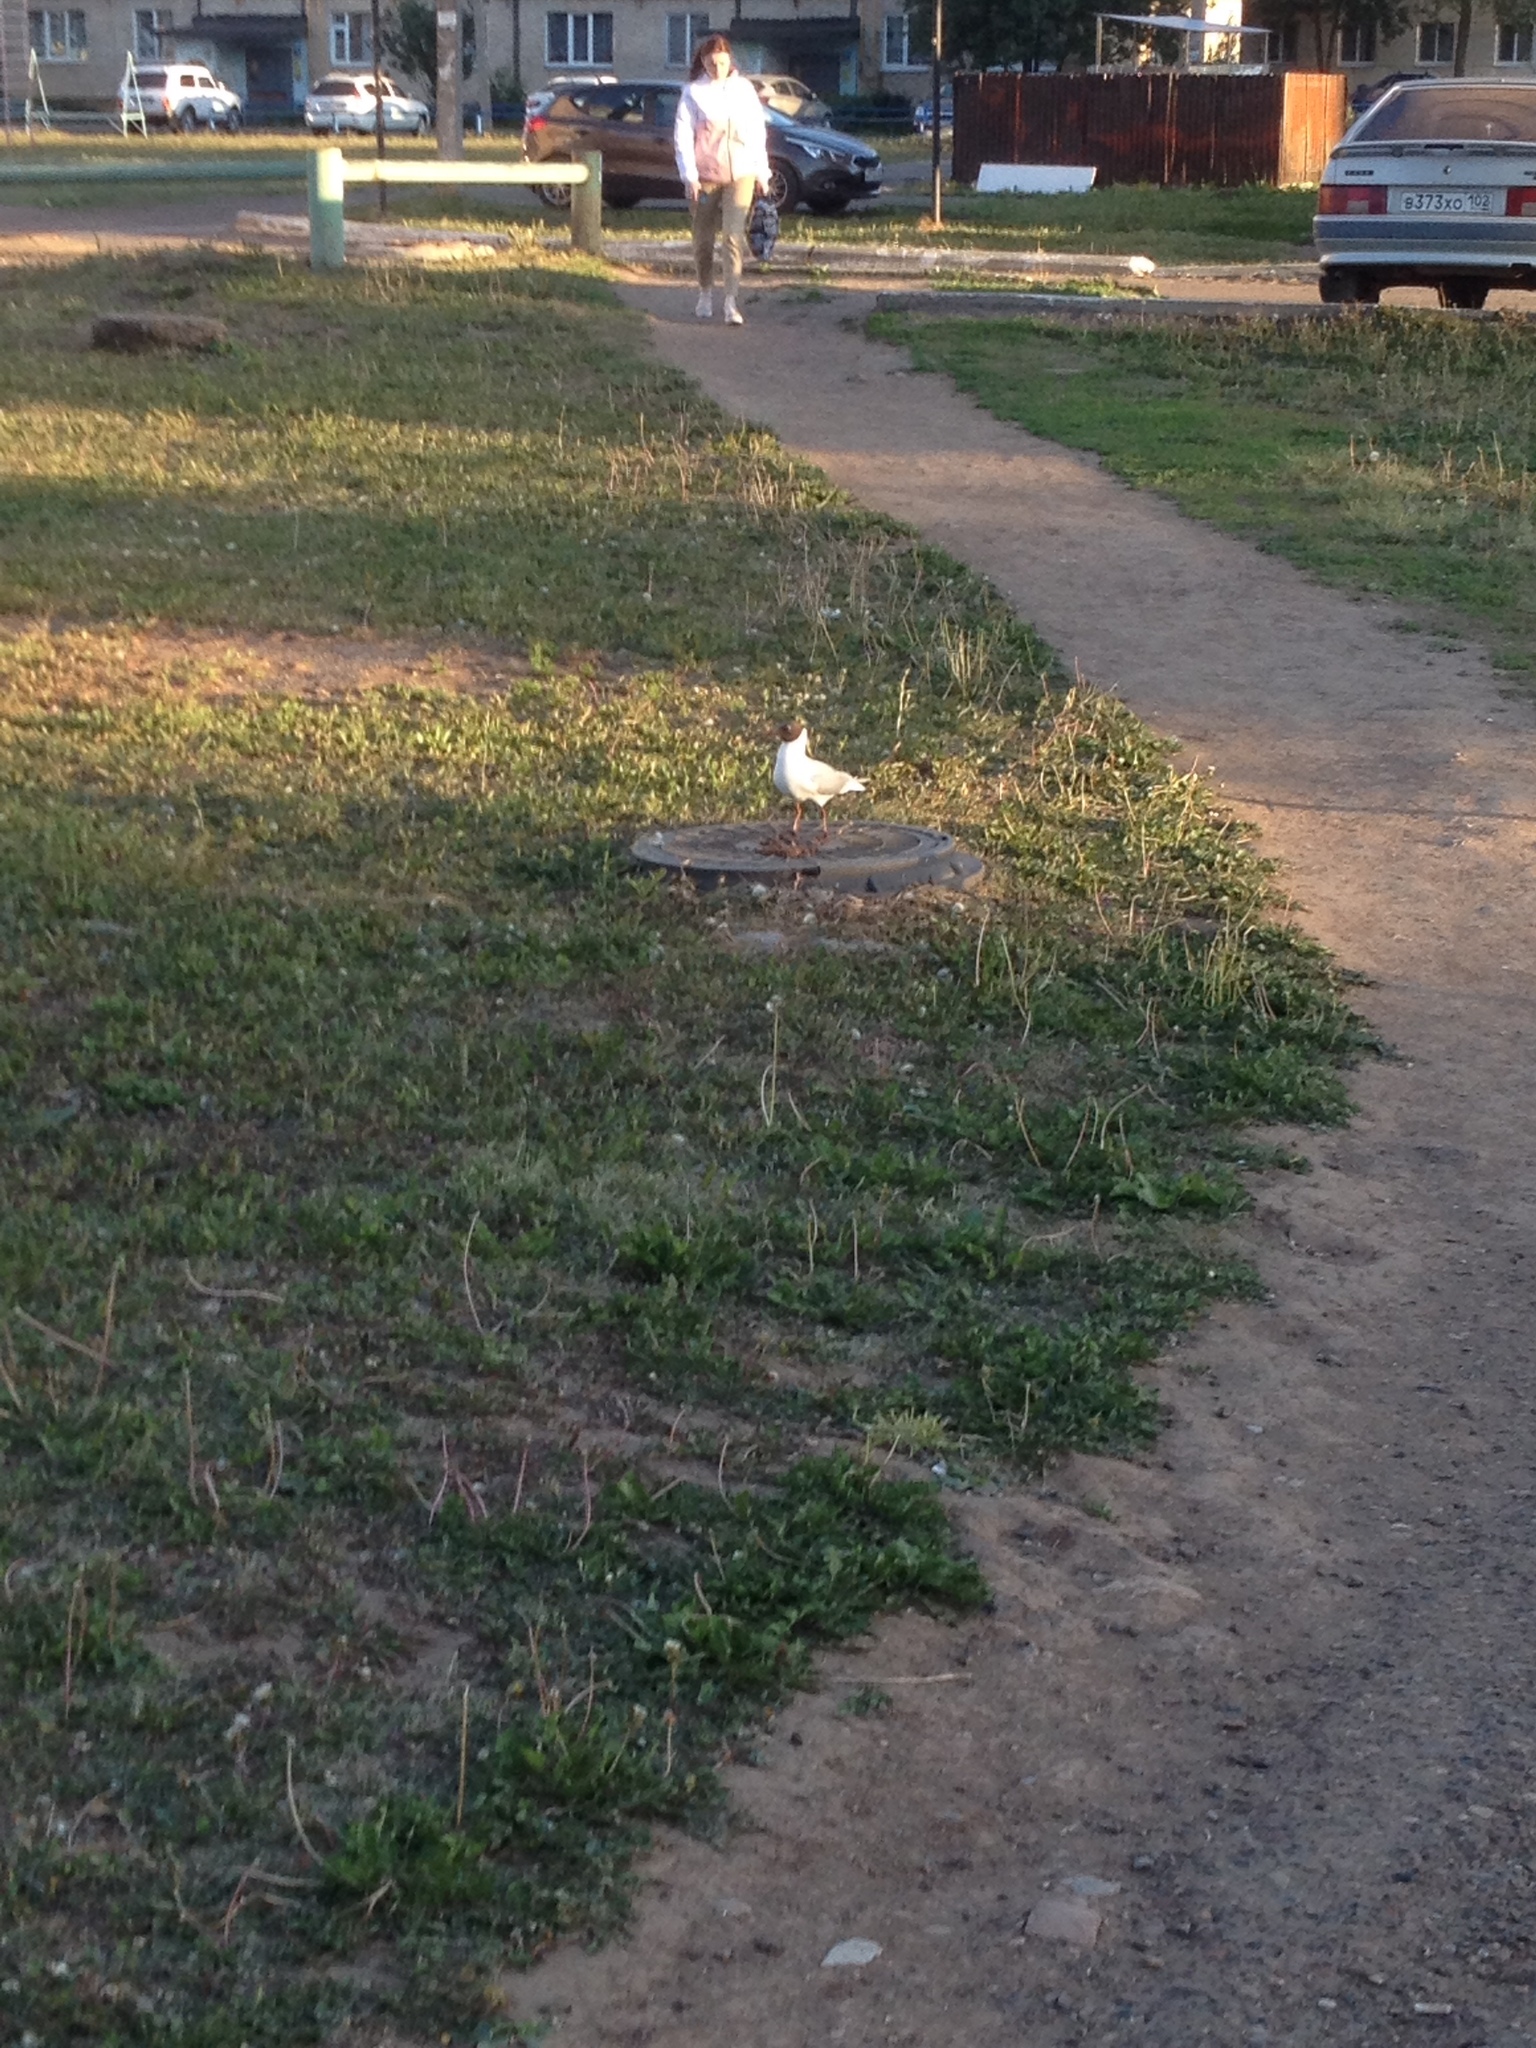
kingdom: Animalia
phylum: Chordata
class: Aves
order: Charadriiformes
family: Laridae
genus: Chroicocephalus
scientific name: Chroicocephalus ridibundus
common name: Black-headed gull
